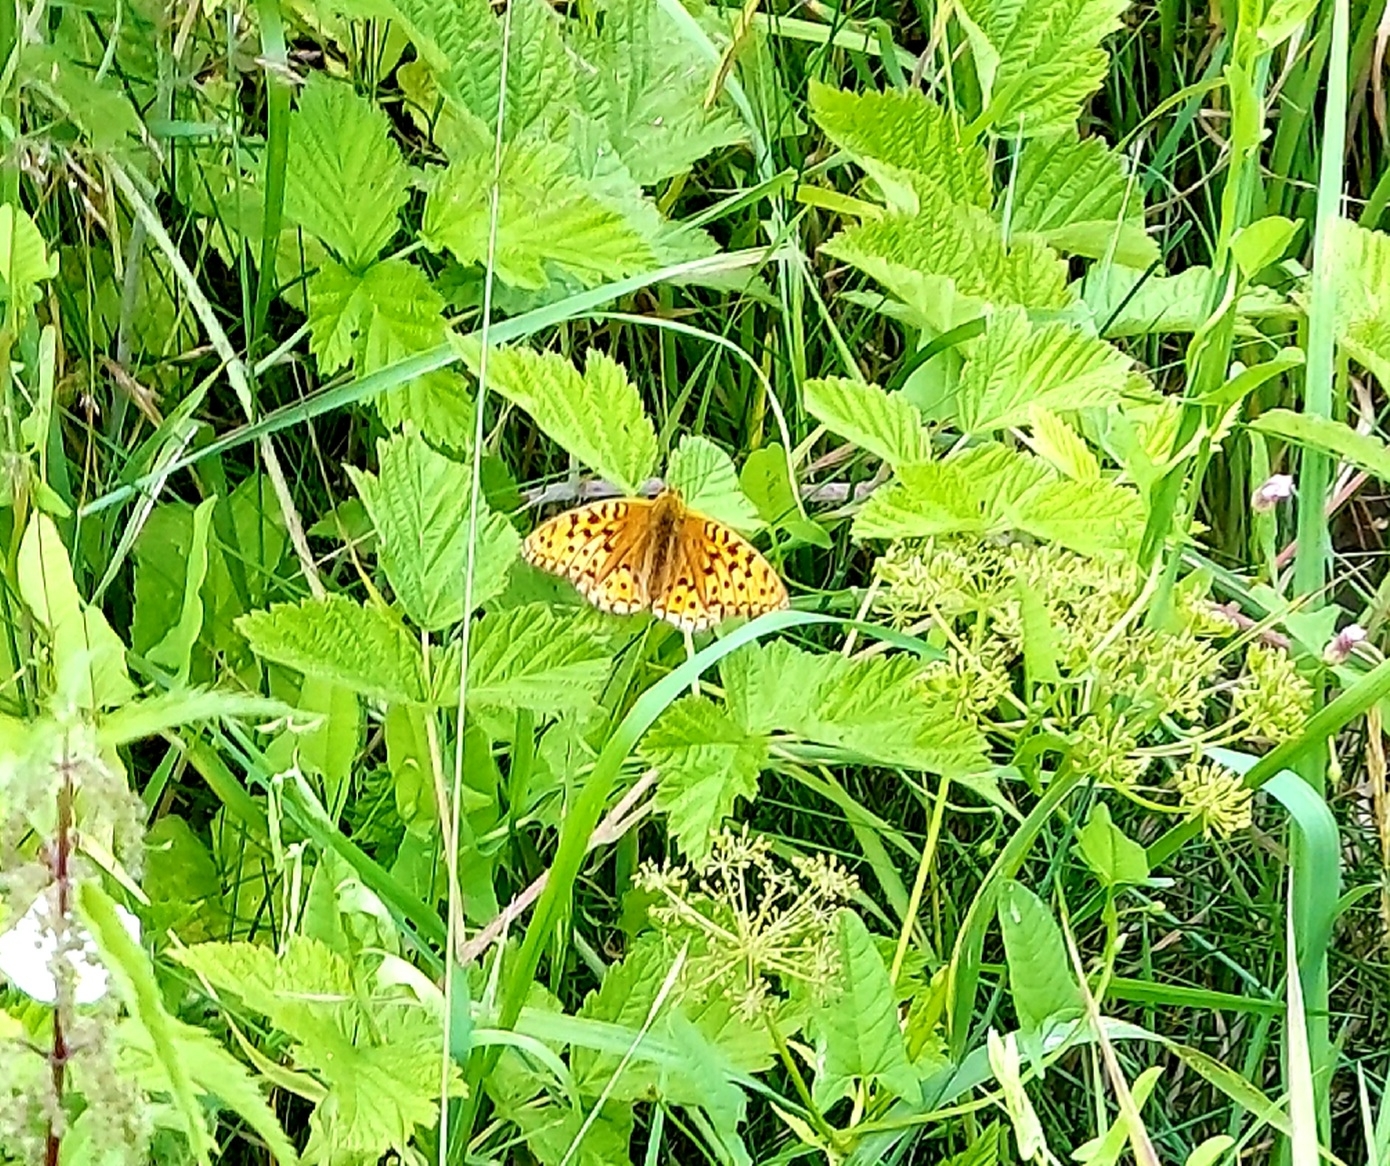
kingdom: Animalia
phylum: Arthropoda
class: Insecta
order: Lepidoptera
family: Nymphalidae
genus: Fabriciana
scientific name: Fabriciana adippe
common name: High brown fritillary
